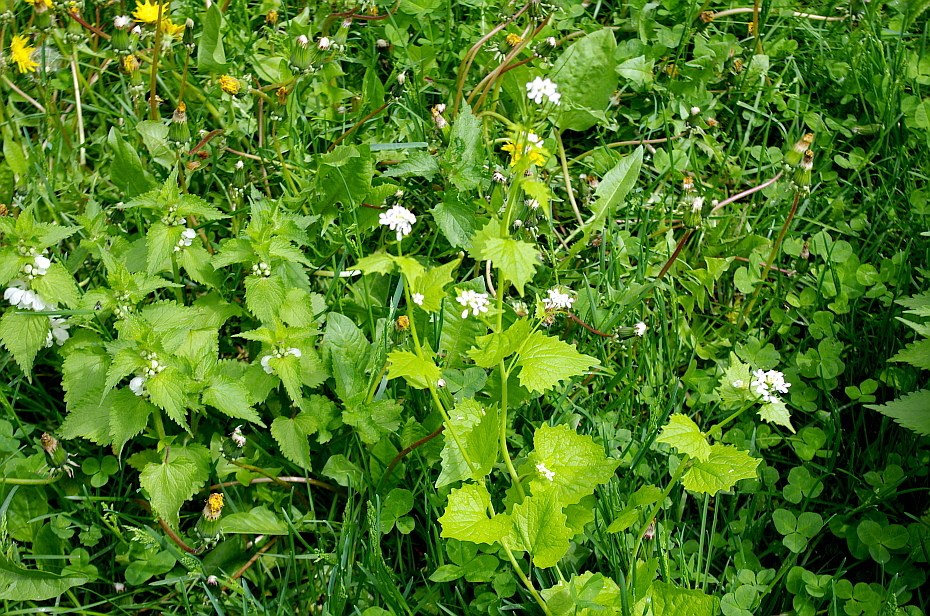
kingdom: Plantae
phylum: Tracheophyta
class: Magnoliopsida
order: Brassicales
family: Brassicaceae
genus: Alliaria
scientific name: Alliaria petiolata
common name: Garlic mustard
